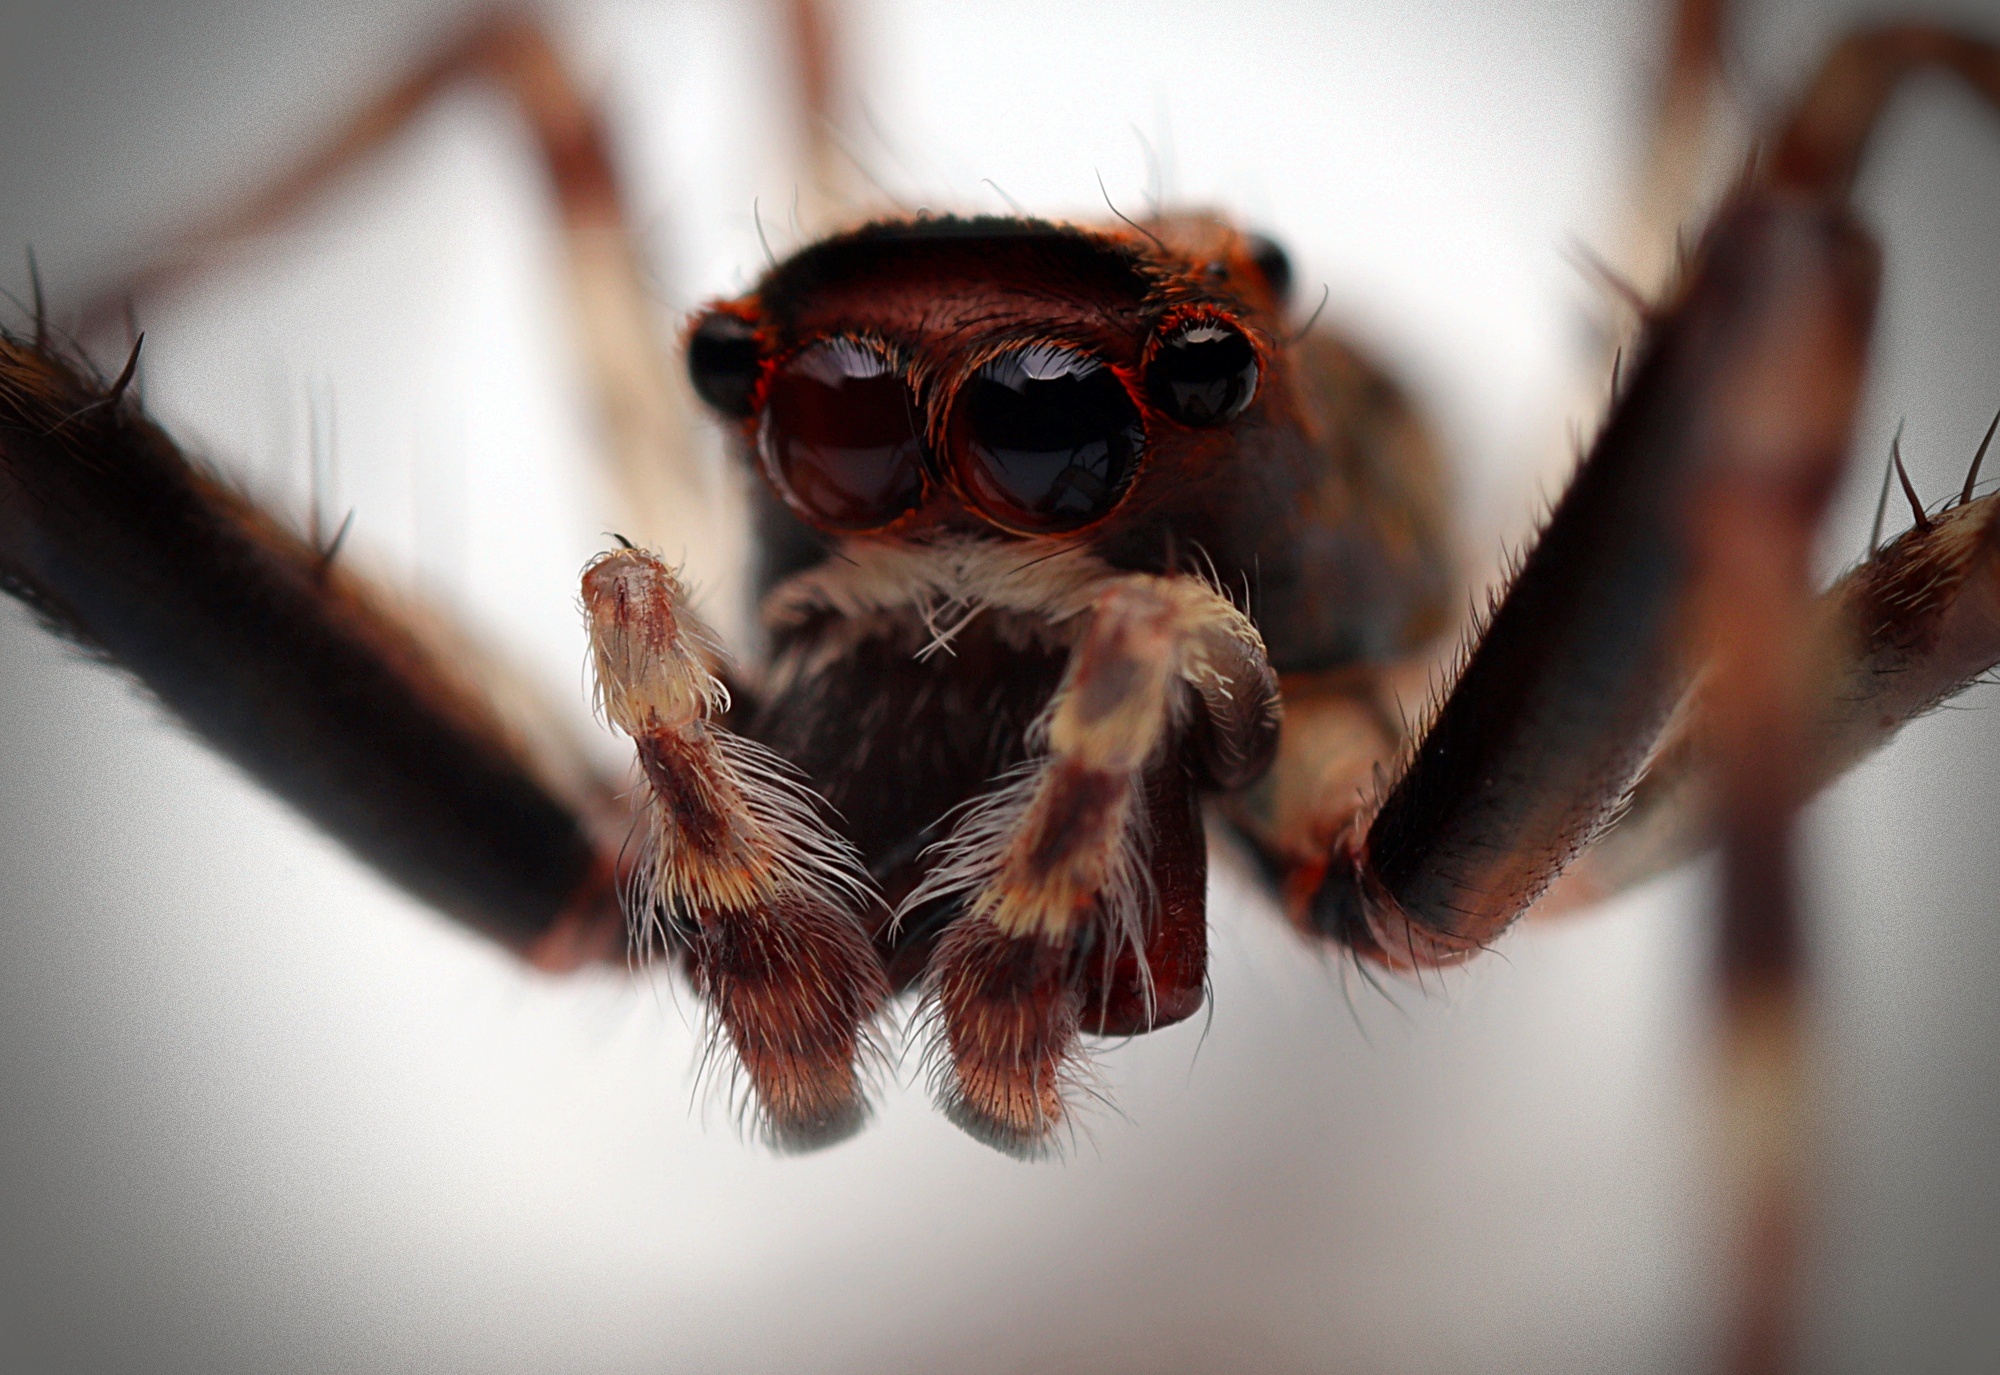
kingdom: Animalia
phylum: Arthropoda
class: Arachnida
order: Araneae
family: Salticidae
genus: Helpis
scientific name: Helpis minitabunda
